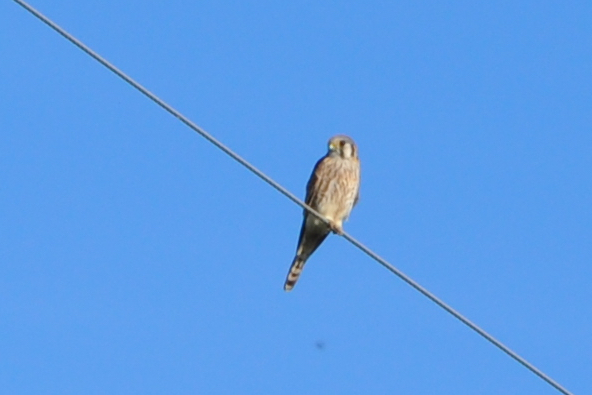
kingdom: Animalia
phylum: Chordata
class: Aves
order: Falconiformes
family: Falconidae
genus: Falco
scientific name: Falco sparverius
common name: American kestrel
